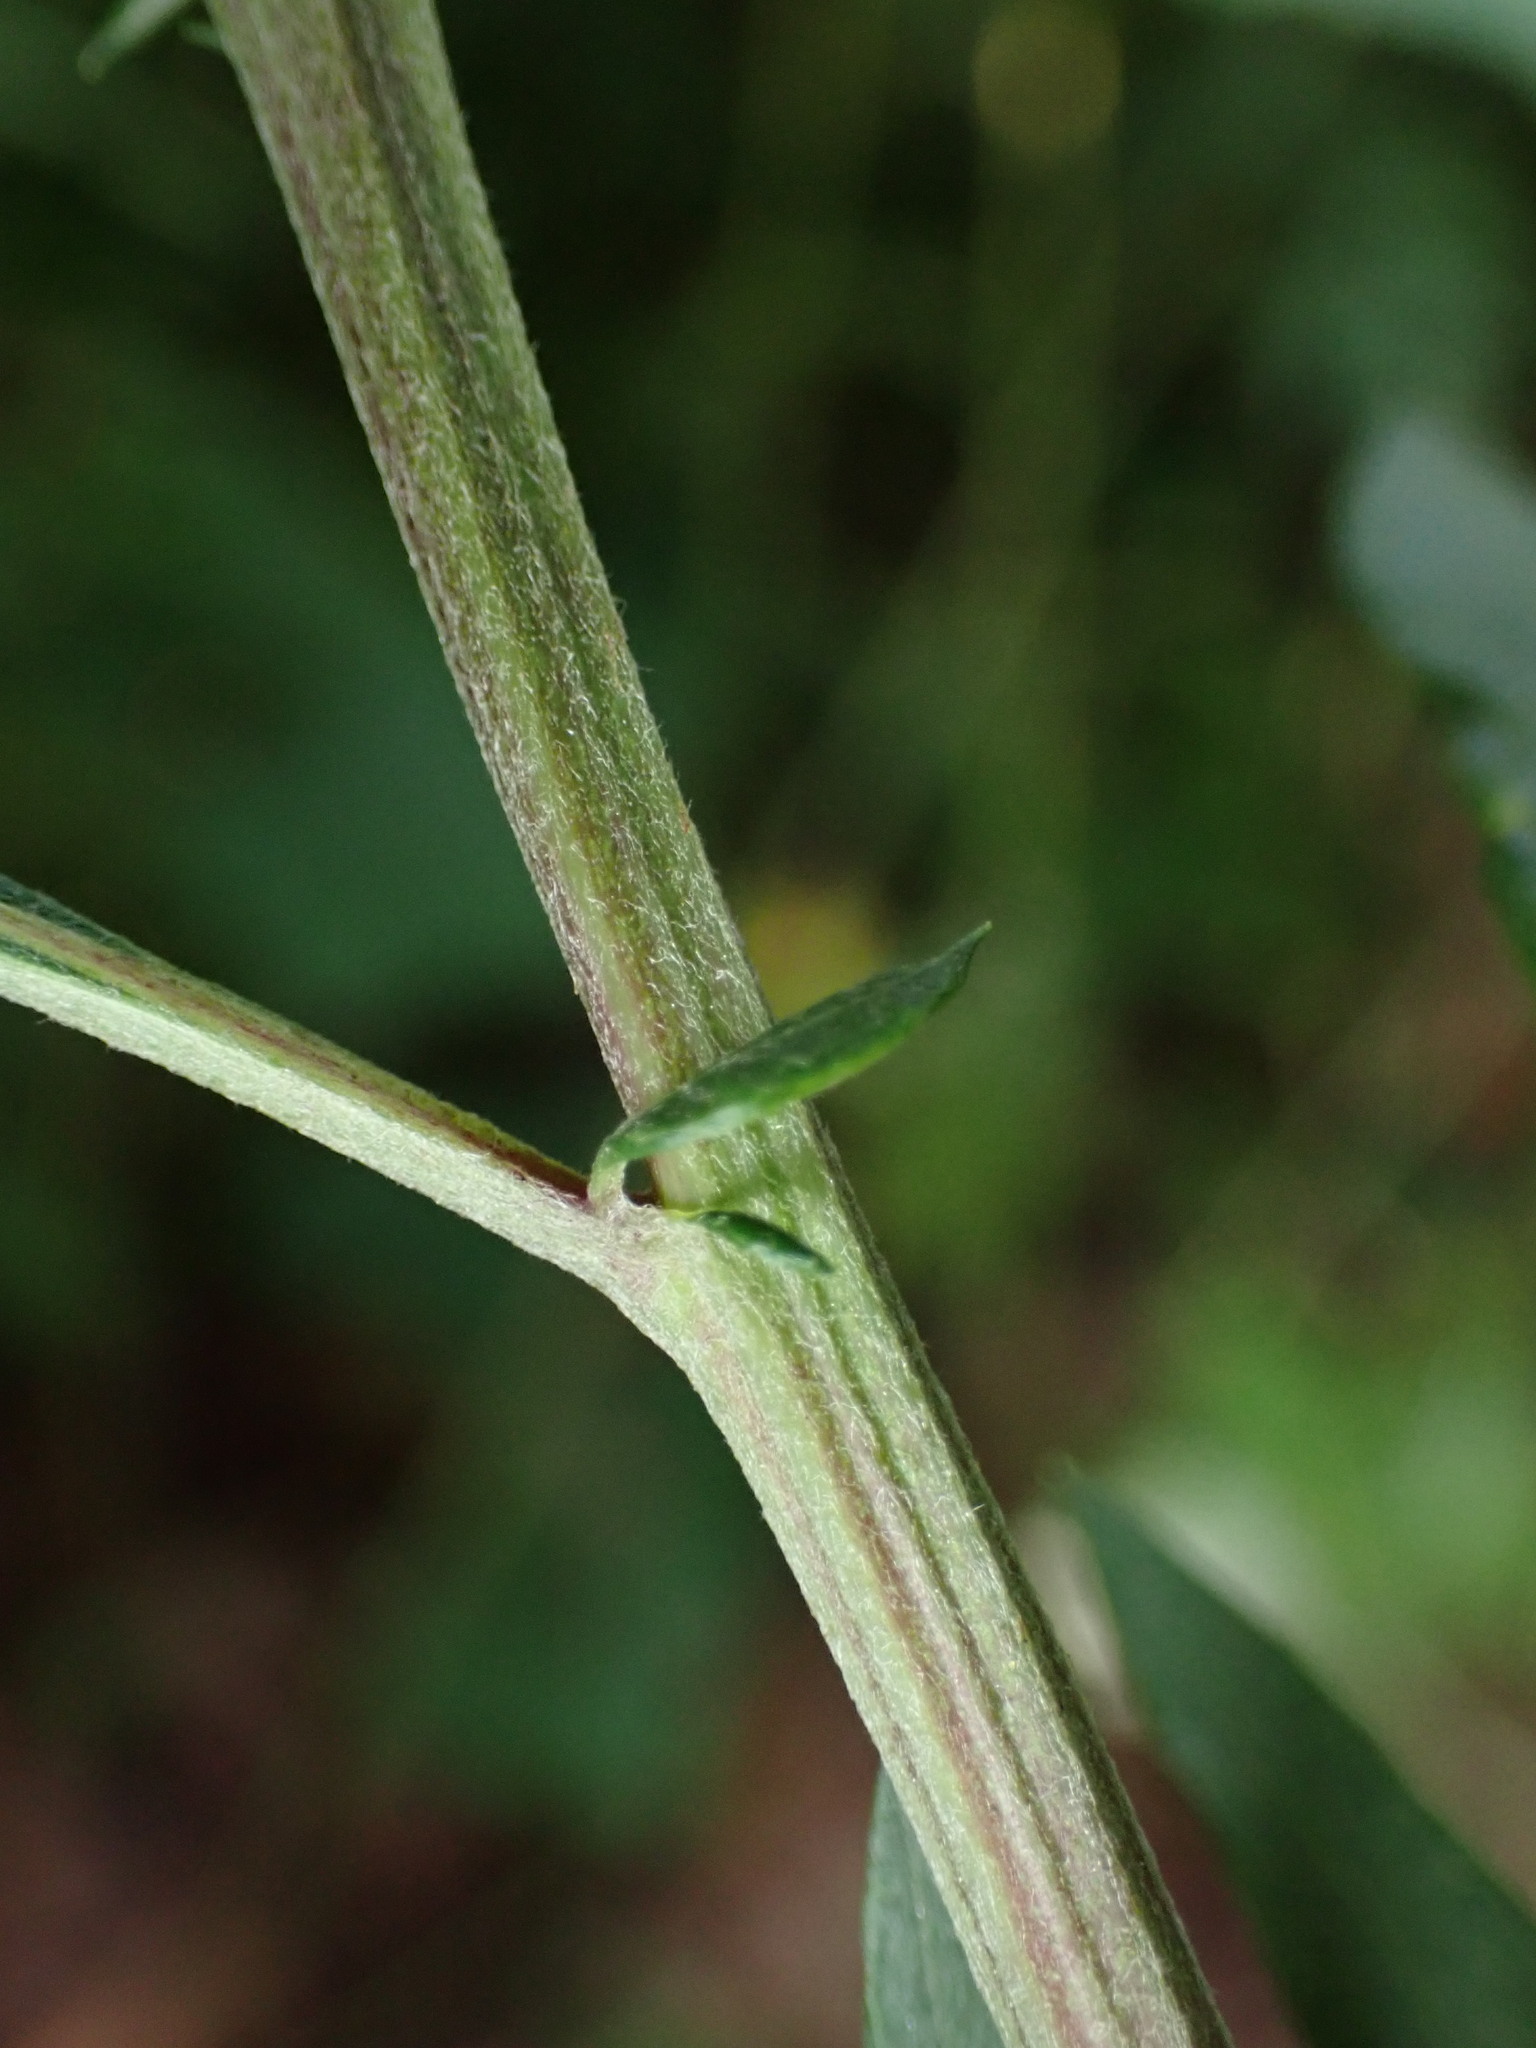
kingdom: Plantae
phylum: Tracheophyta
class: Magnoliopsida
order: Asterales
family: Asteraceae
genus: Artemisia
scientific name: Artemisia vulgaris
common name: Mugwort
